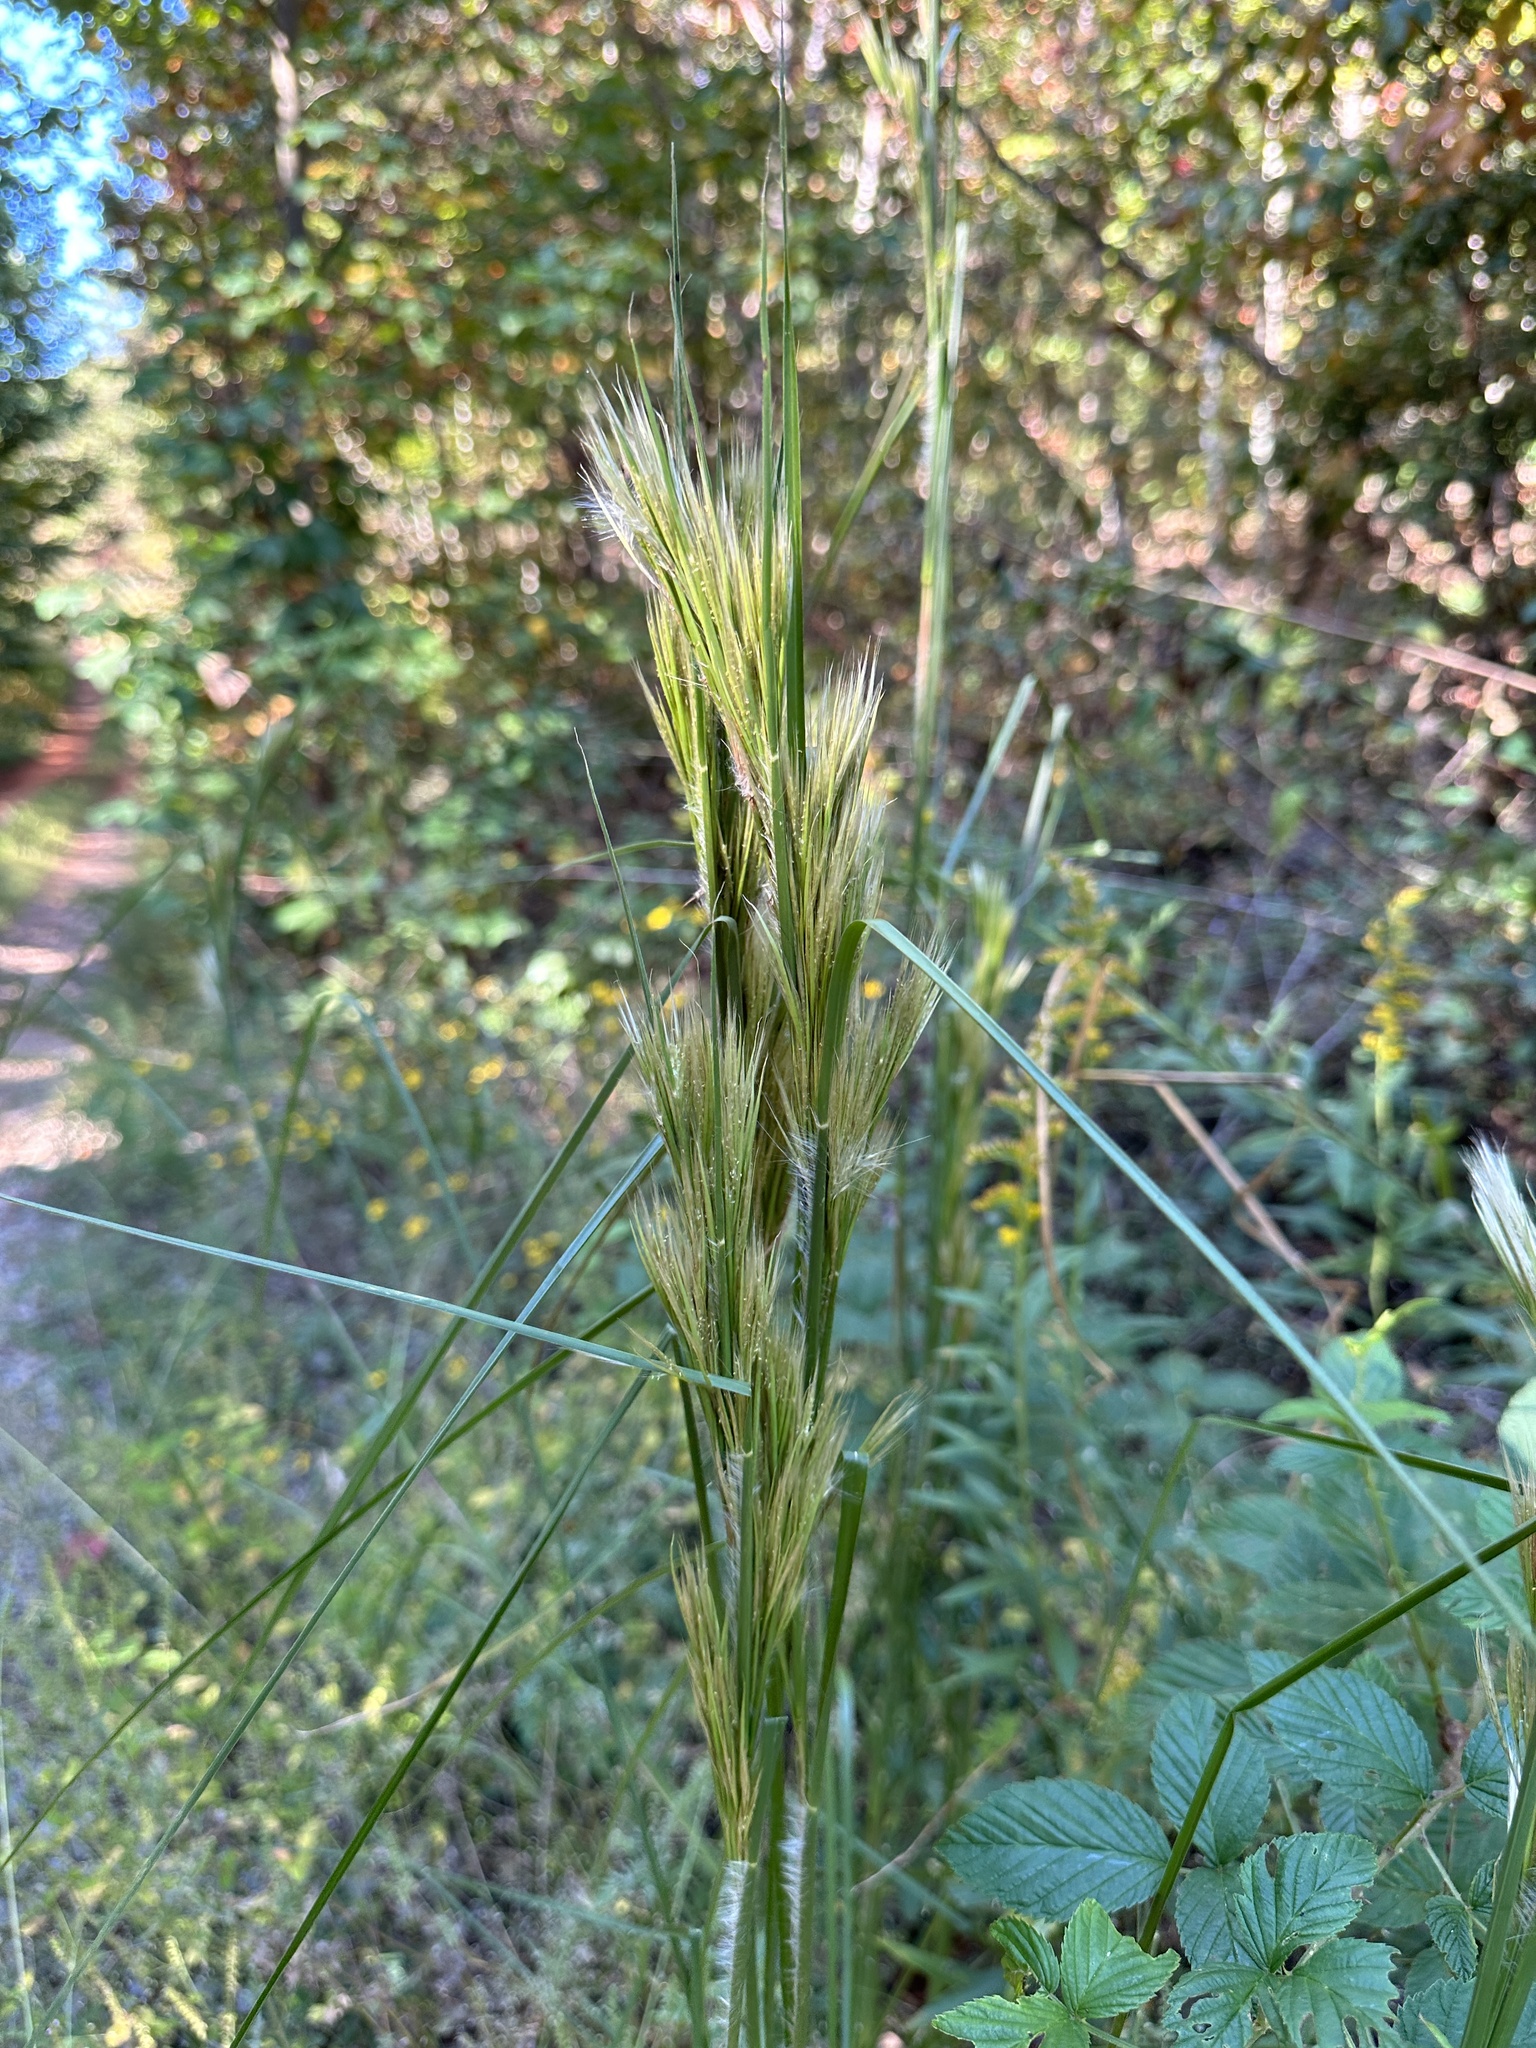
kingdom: Plantae
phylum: Tracheophyta
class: Liliopsida
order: Poales
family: Poaceae
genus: Andropogon
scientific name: Andropogon tenuispatheus
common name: Bushy bluestem
